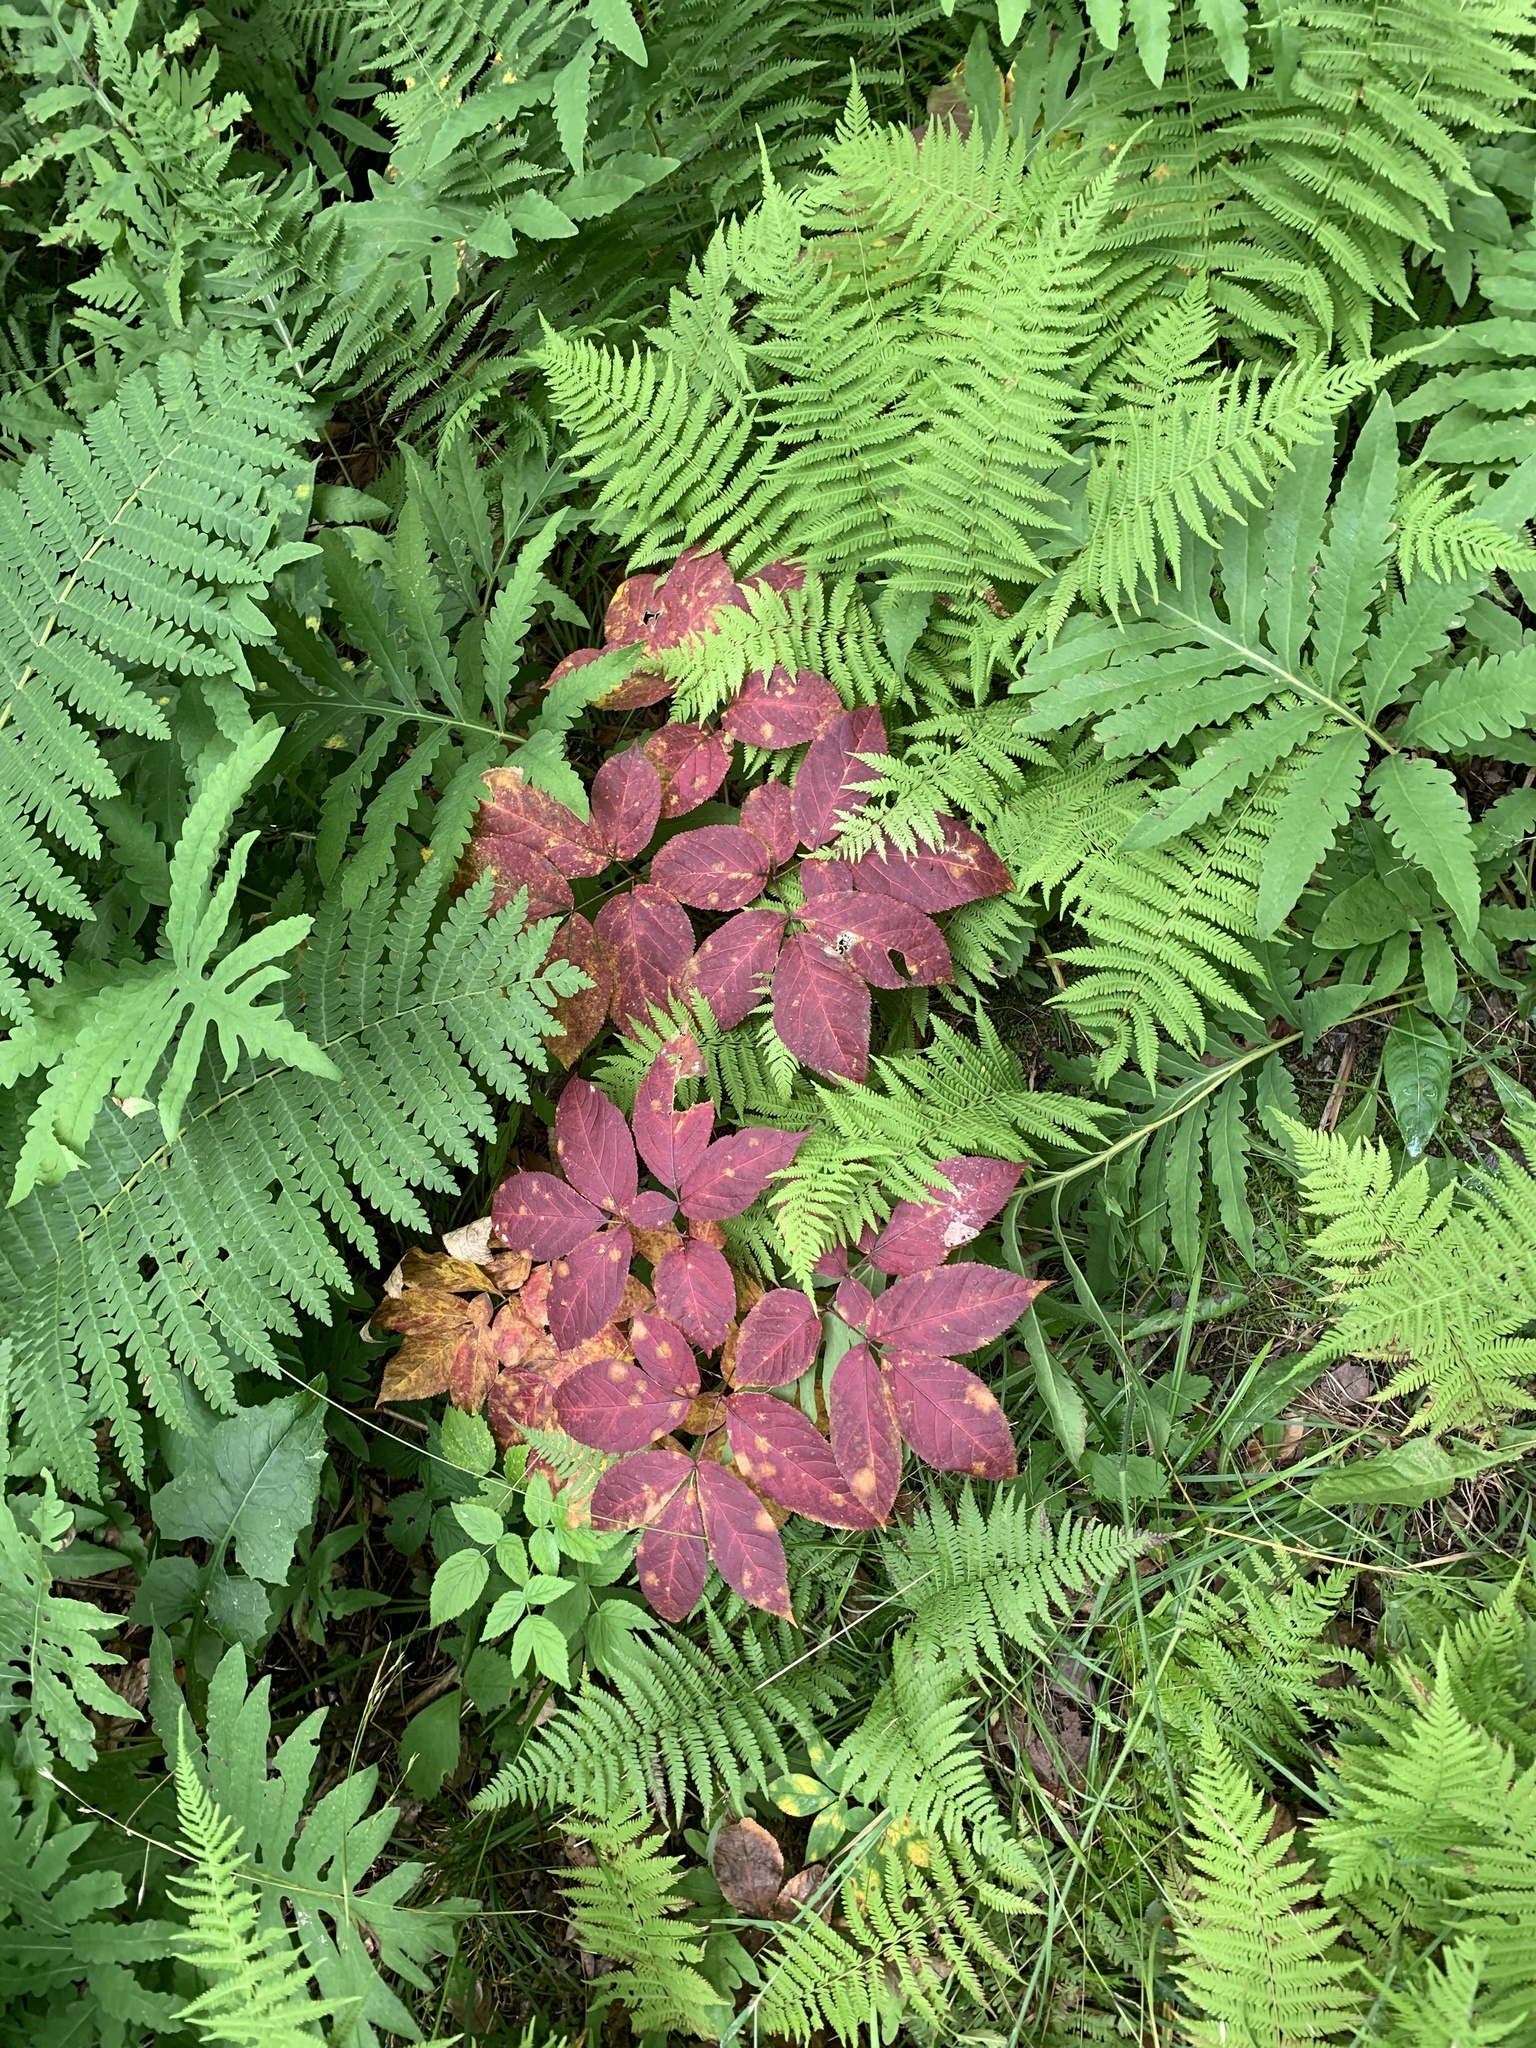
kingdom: Plantae
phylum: Tracheophyta
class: Magnoliopsida
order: Apiales
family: Araliaceae
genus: Aralia
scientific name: Aralia nudicaulis
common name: Wild sarsaparilla
